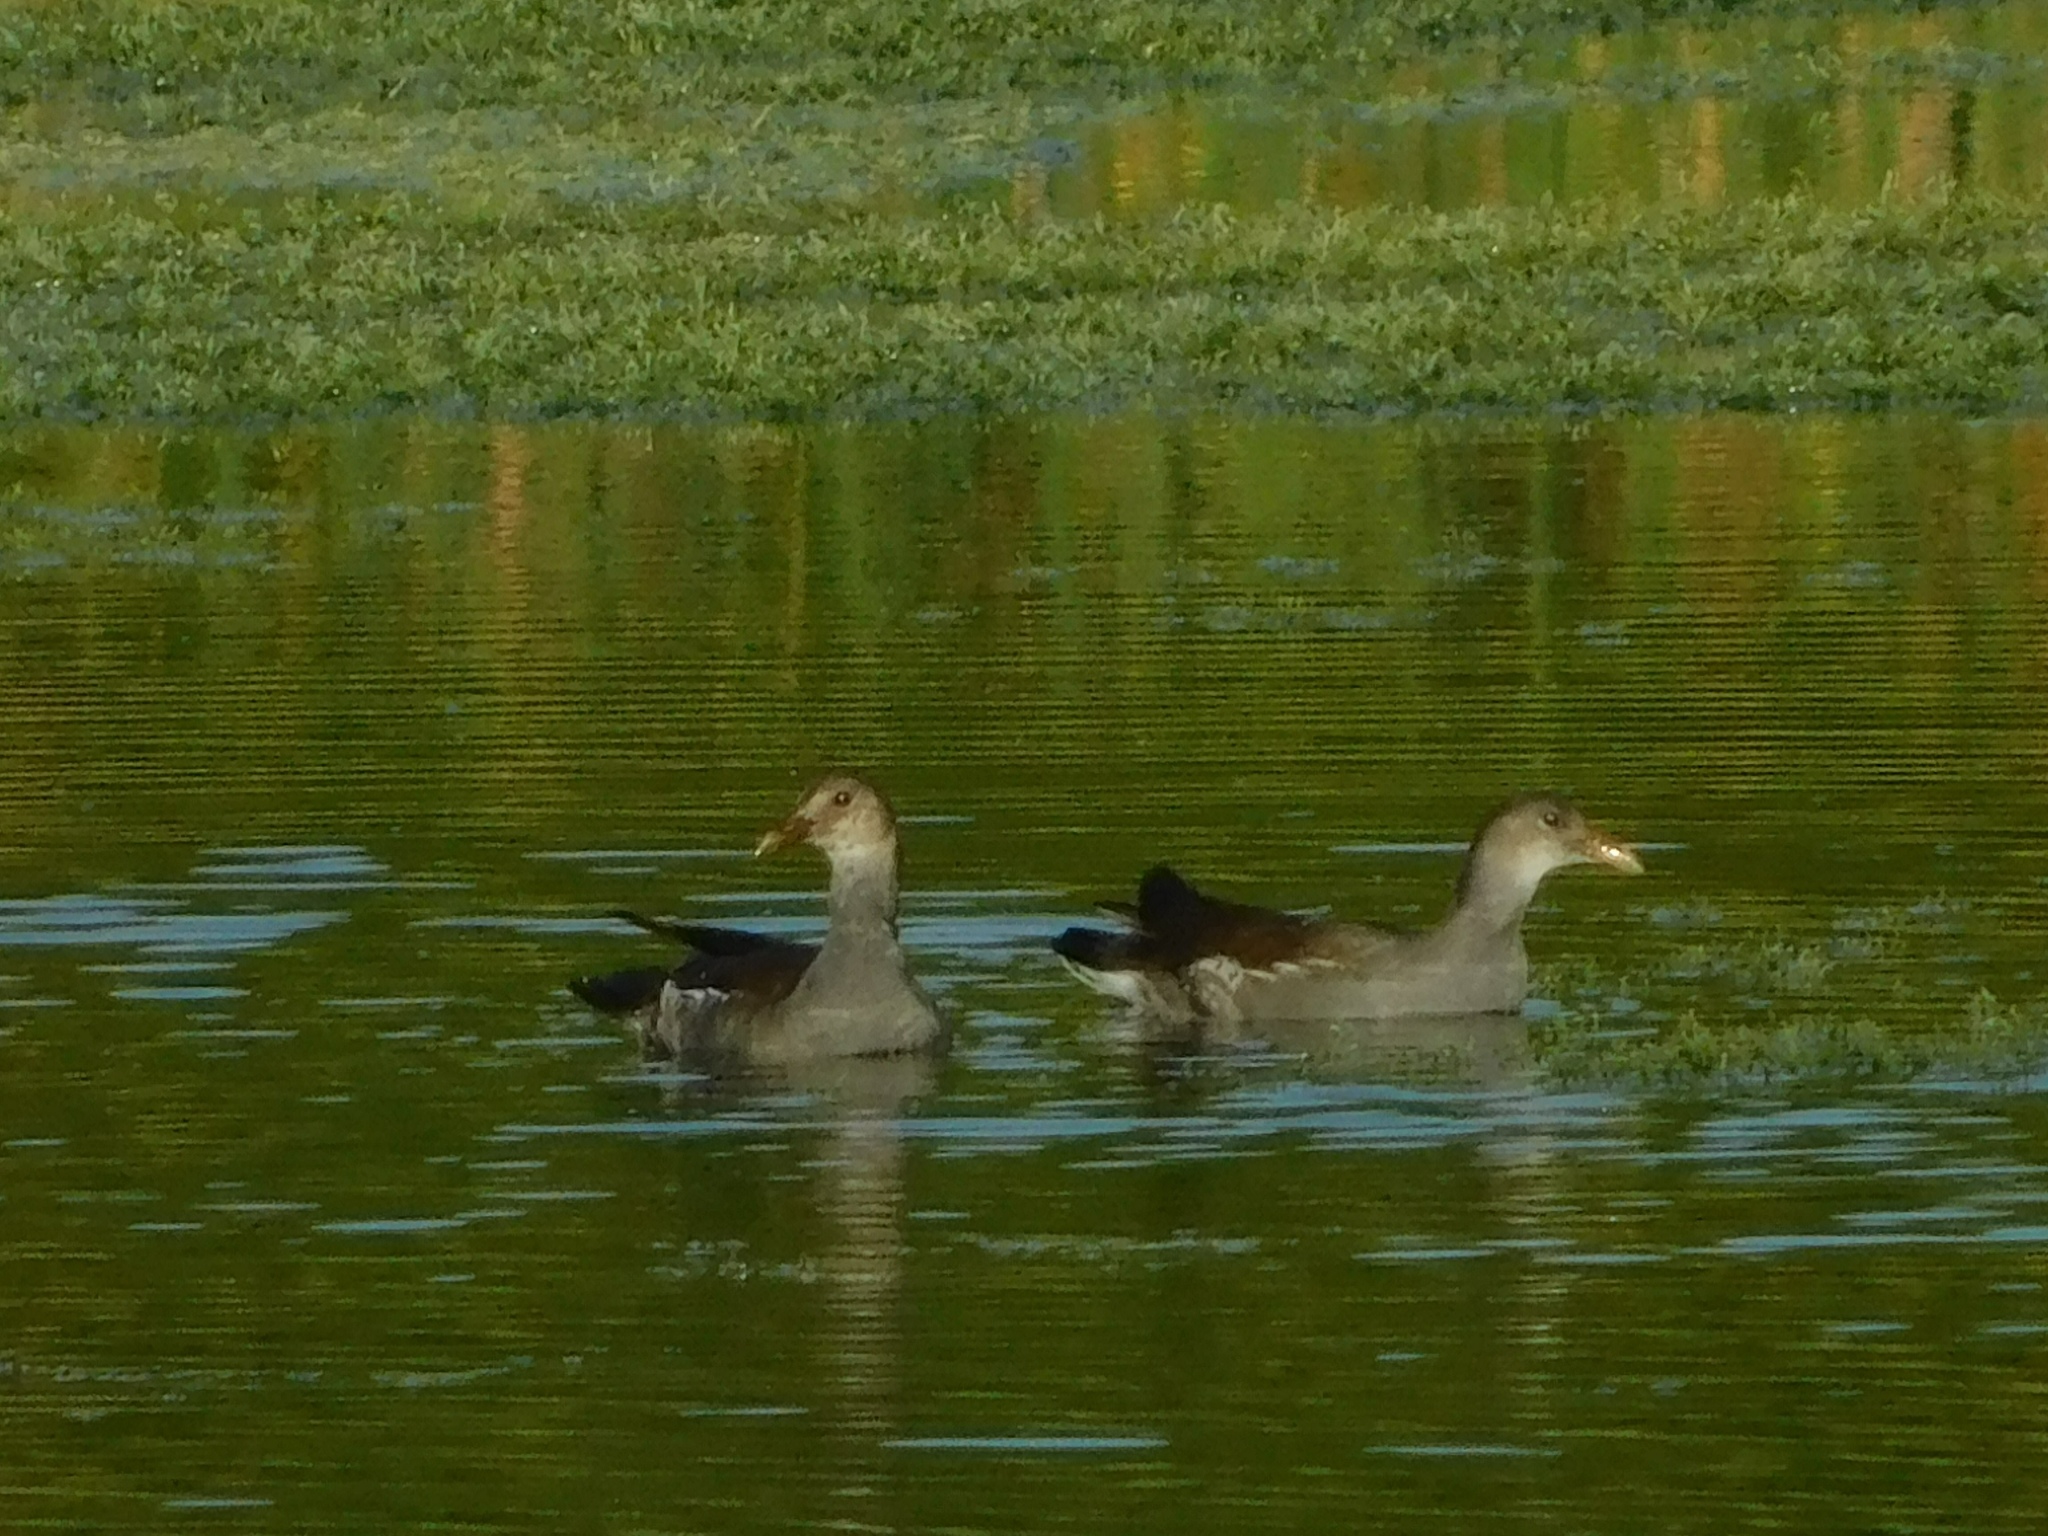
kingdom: Animalia
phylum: Chordata
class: Aves
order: Gruiformes
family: Rallidae
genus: Gallinula
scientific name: Gallinula chloropus
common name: Common moorhen
